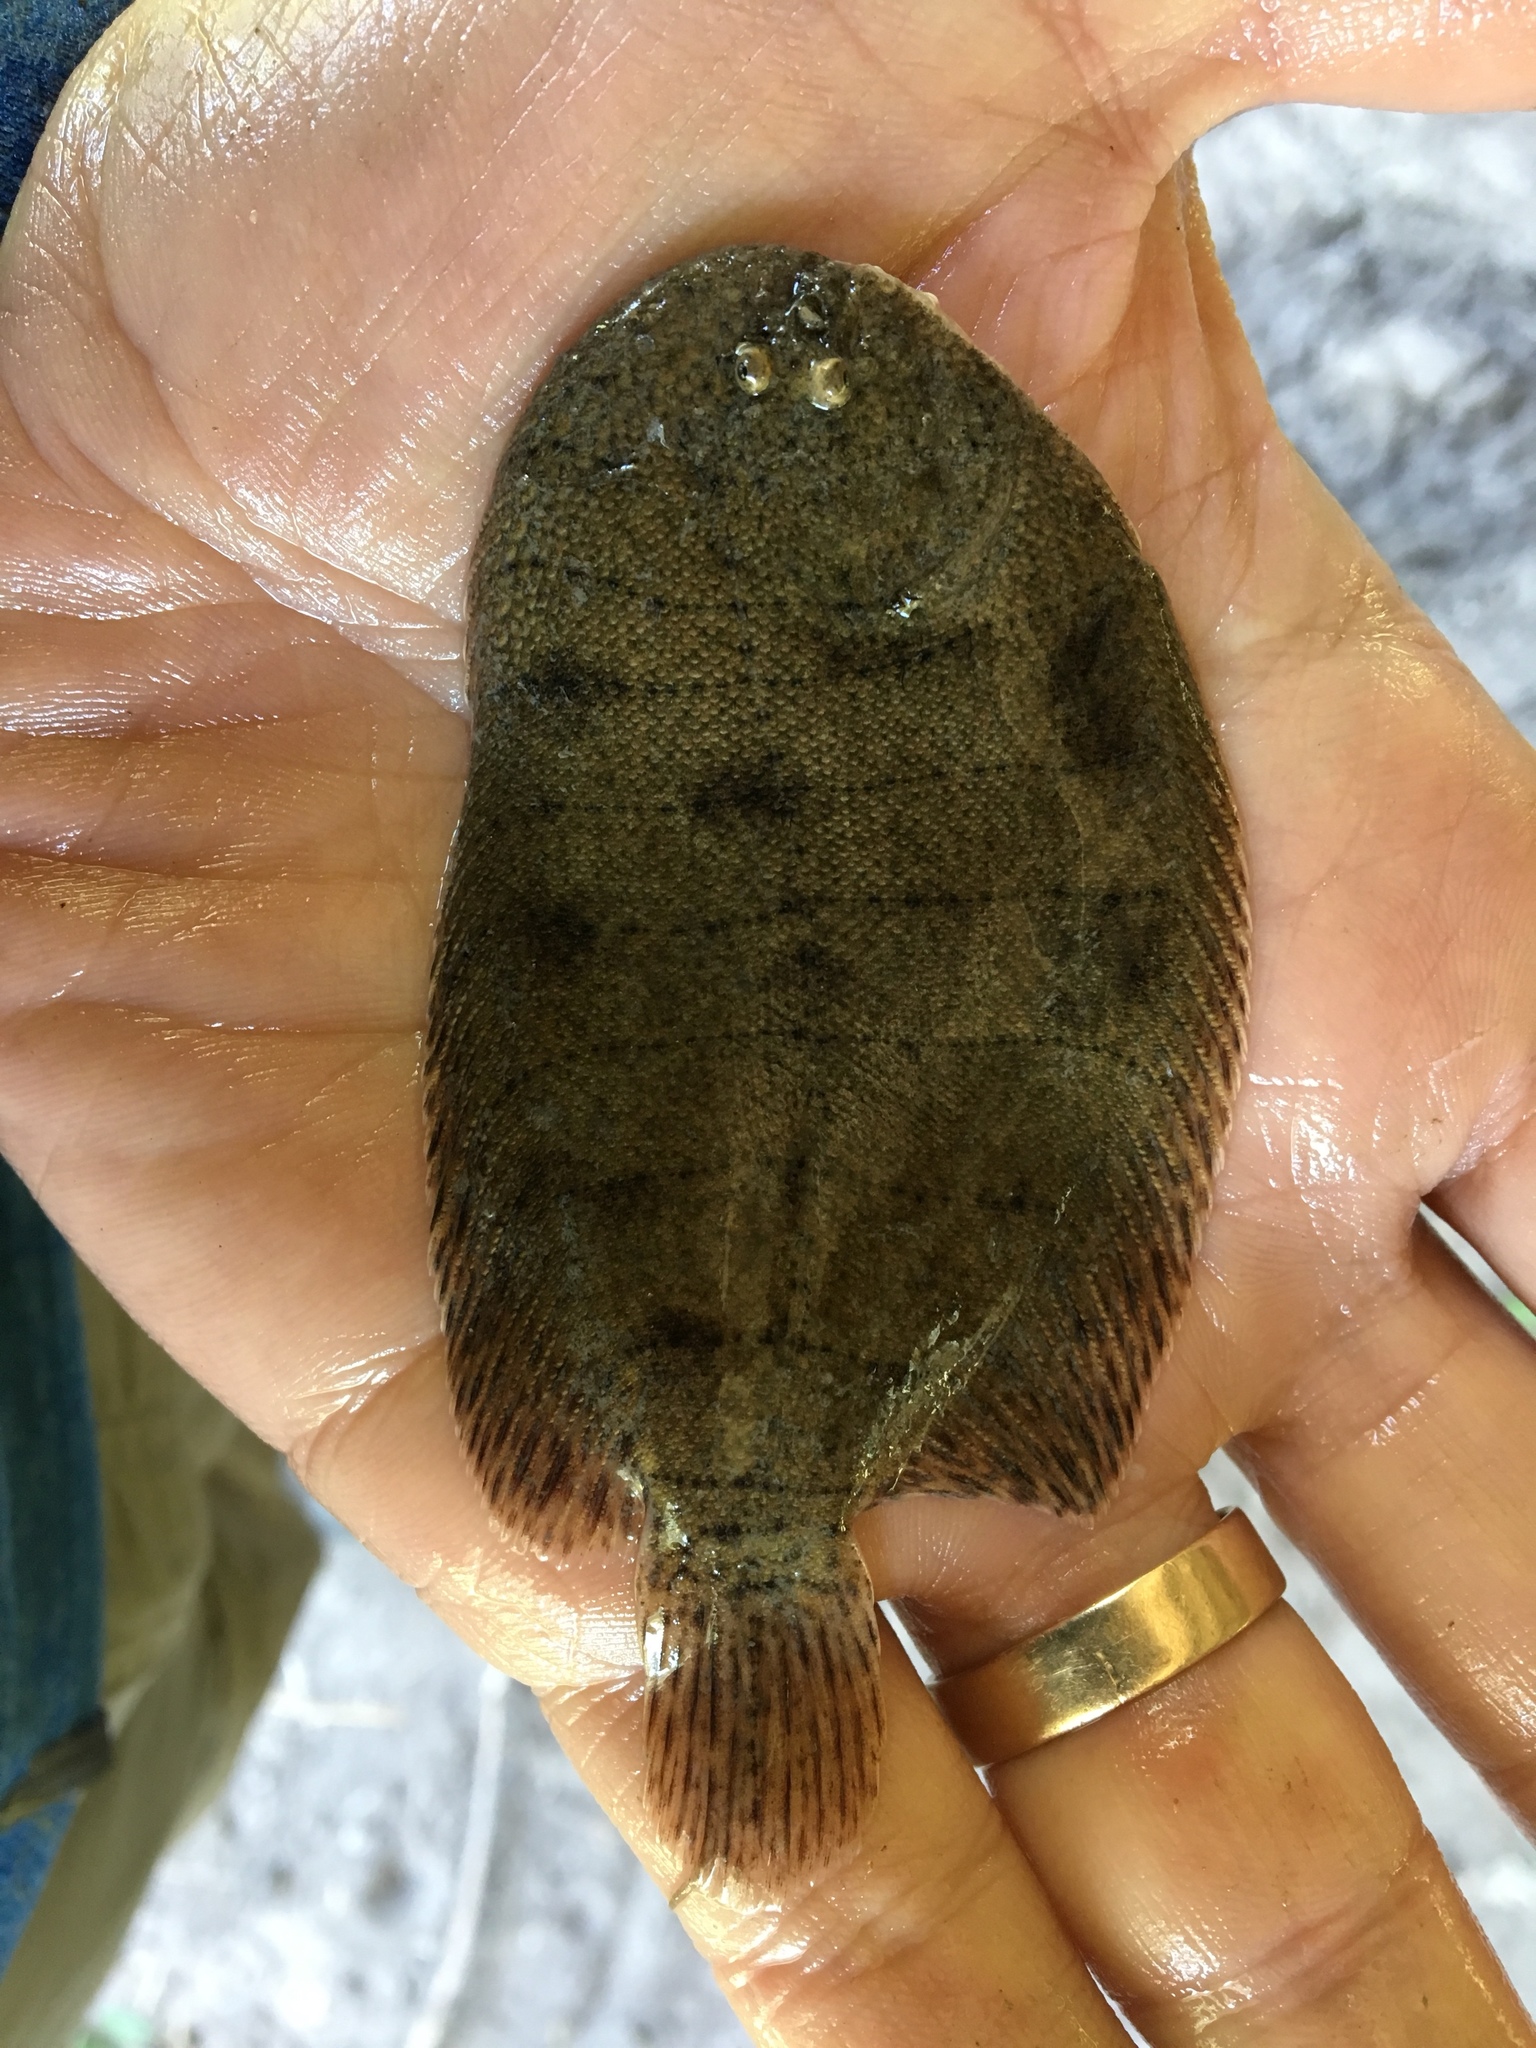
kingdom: Animalia
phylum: Chordata
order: Pleuronectiformes
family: Achiridae
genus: Trinectes
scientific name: Trinectes maculatus
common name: Hogchoker
